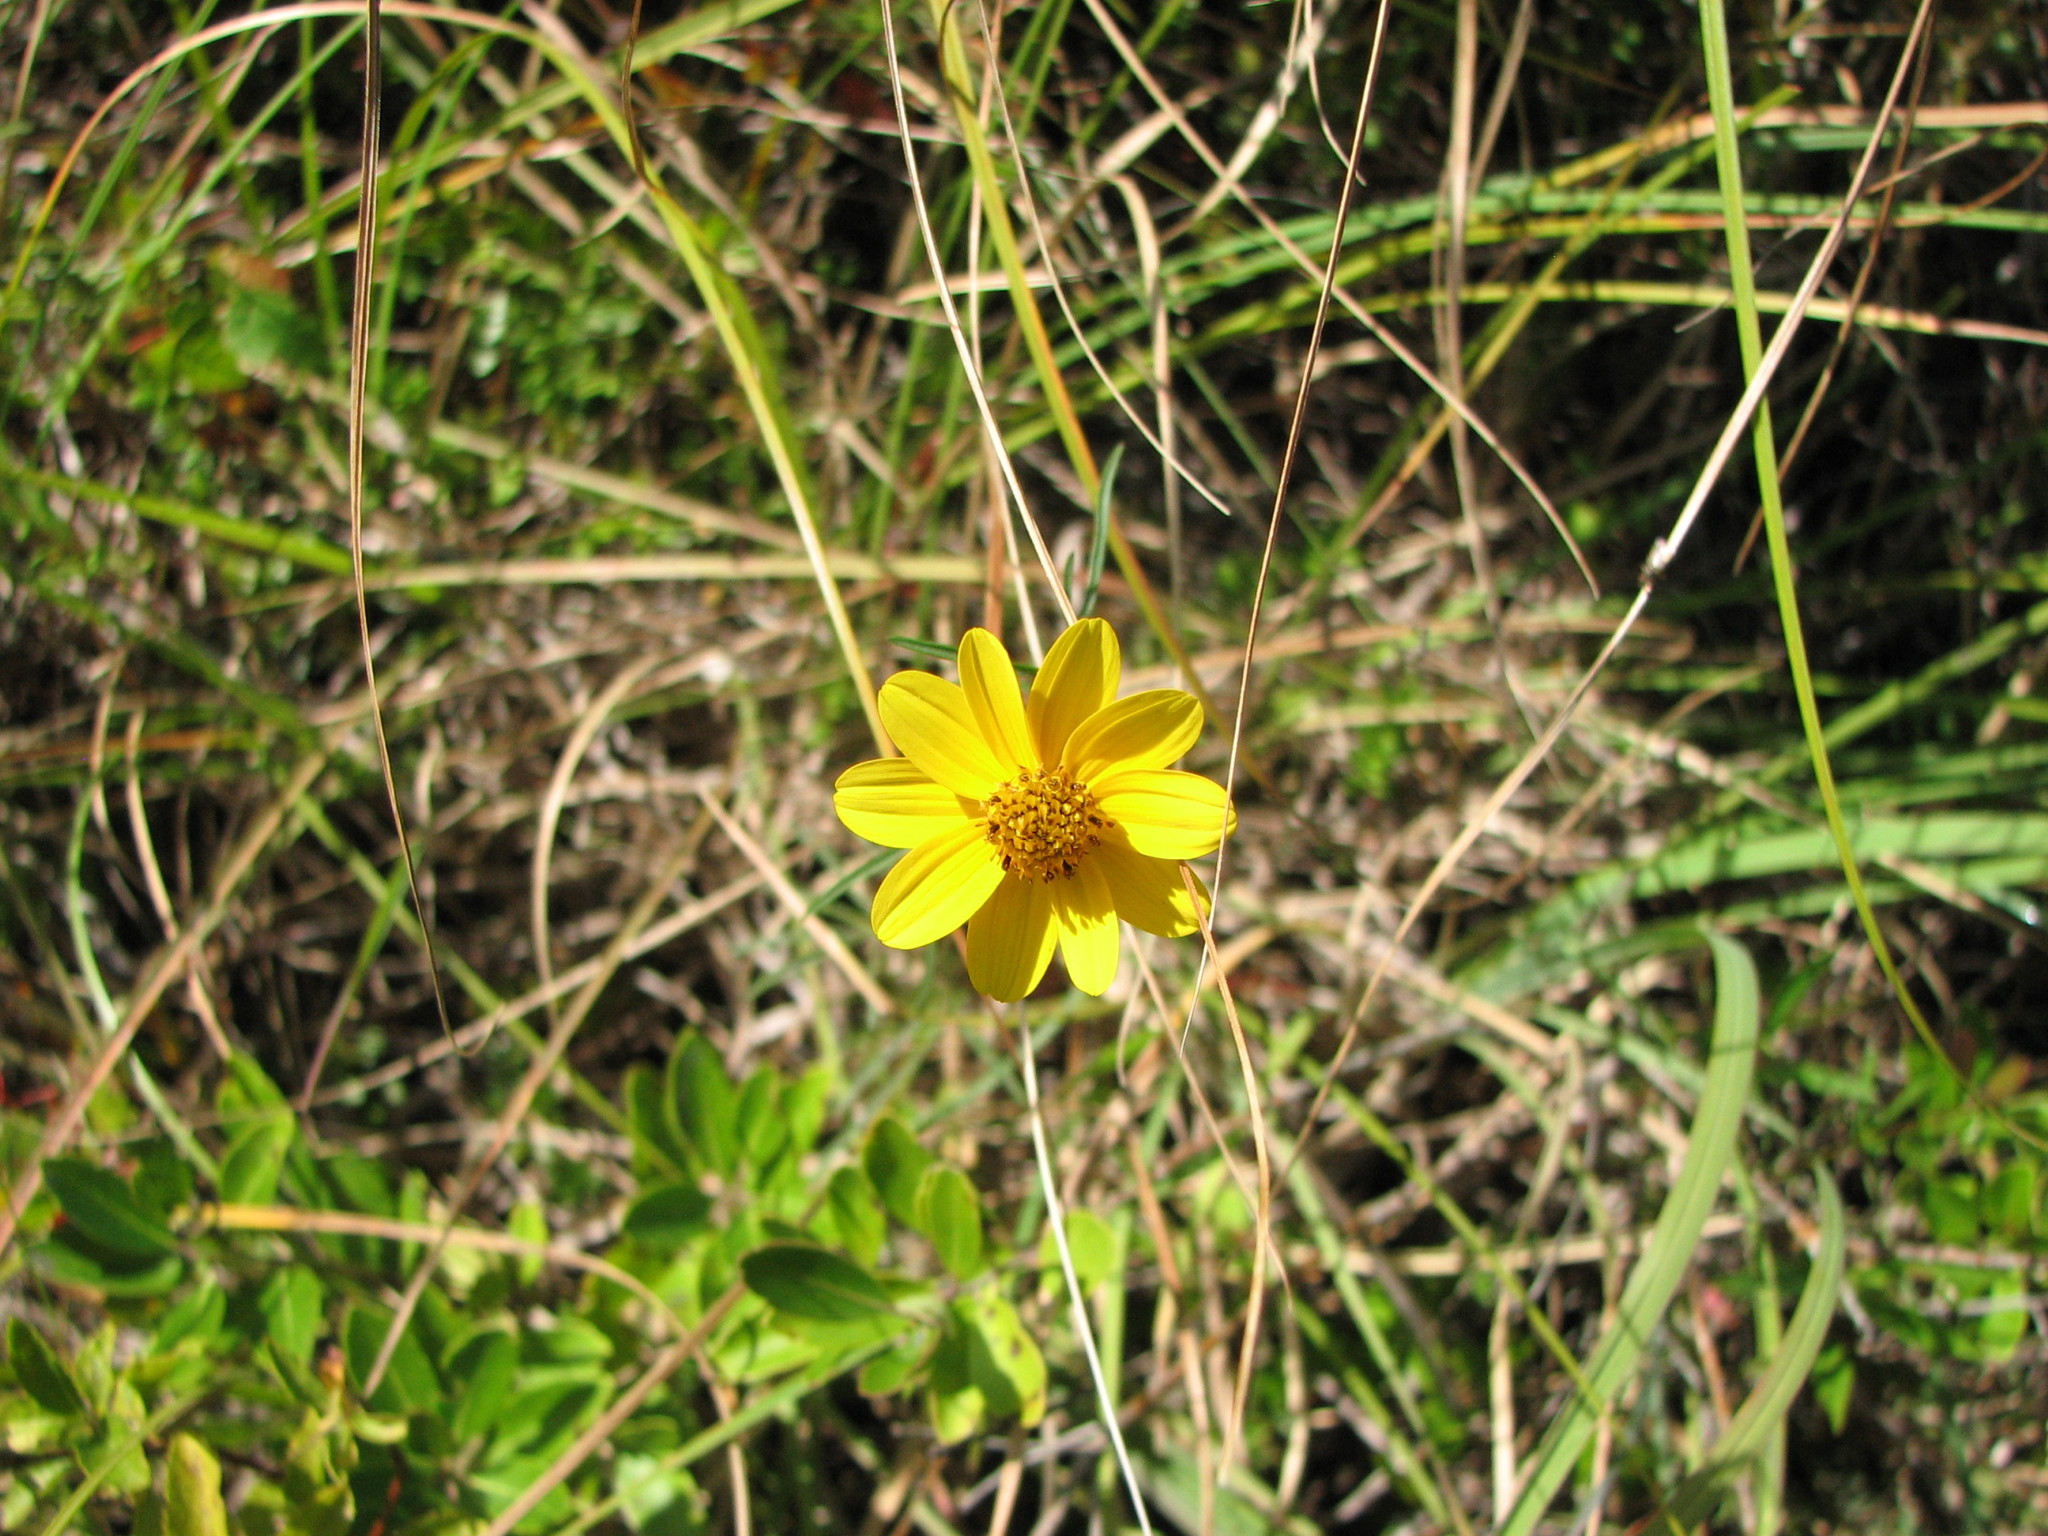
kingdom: Plantae
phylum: Tracheophyta
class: Magnoliopsida
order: Asterales
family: Asteraceae
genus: Bidens
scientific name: Bidens trichosperma
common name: Crowned beggarticks
